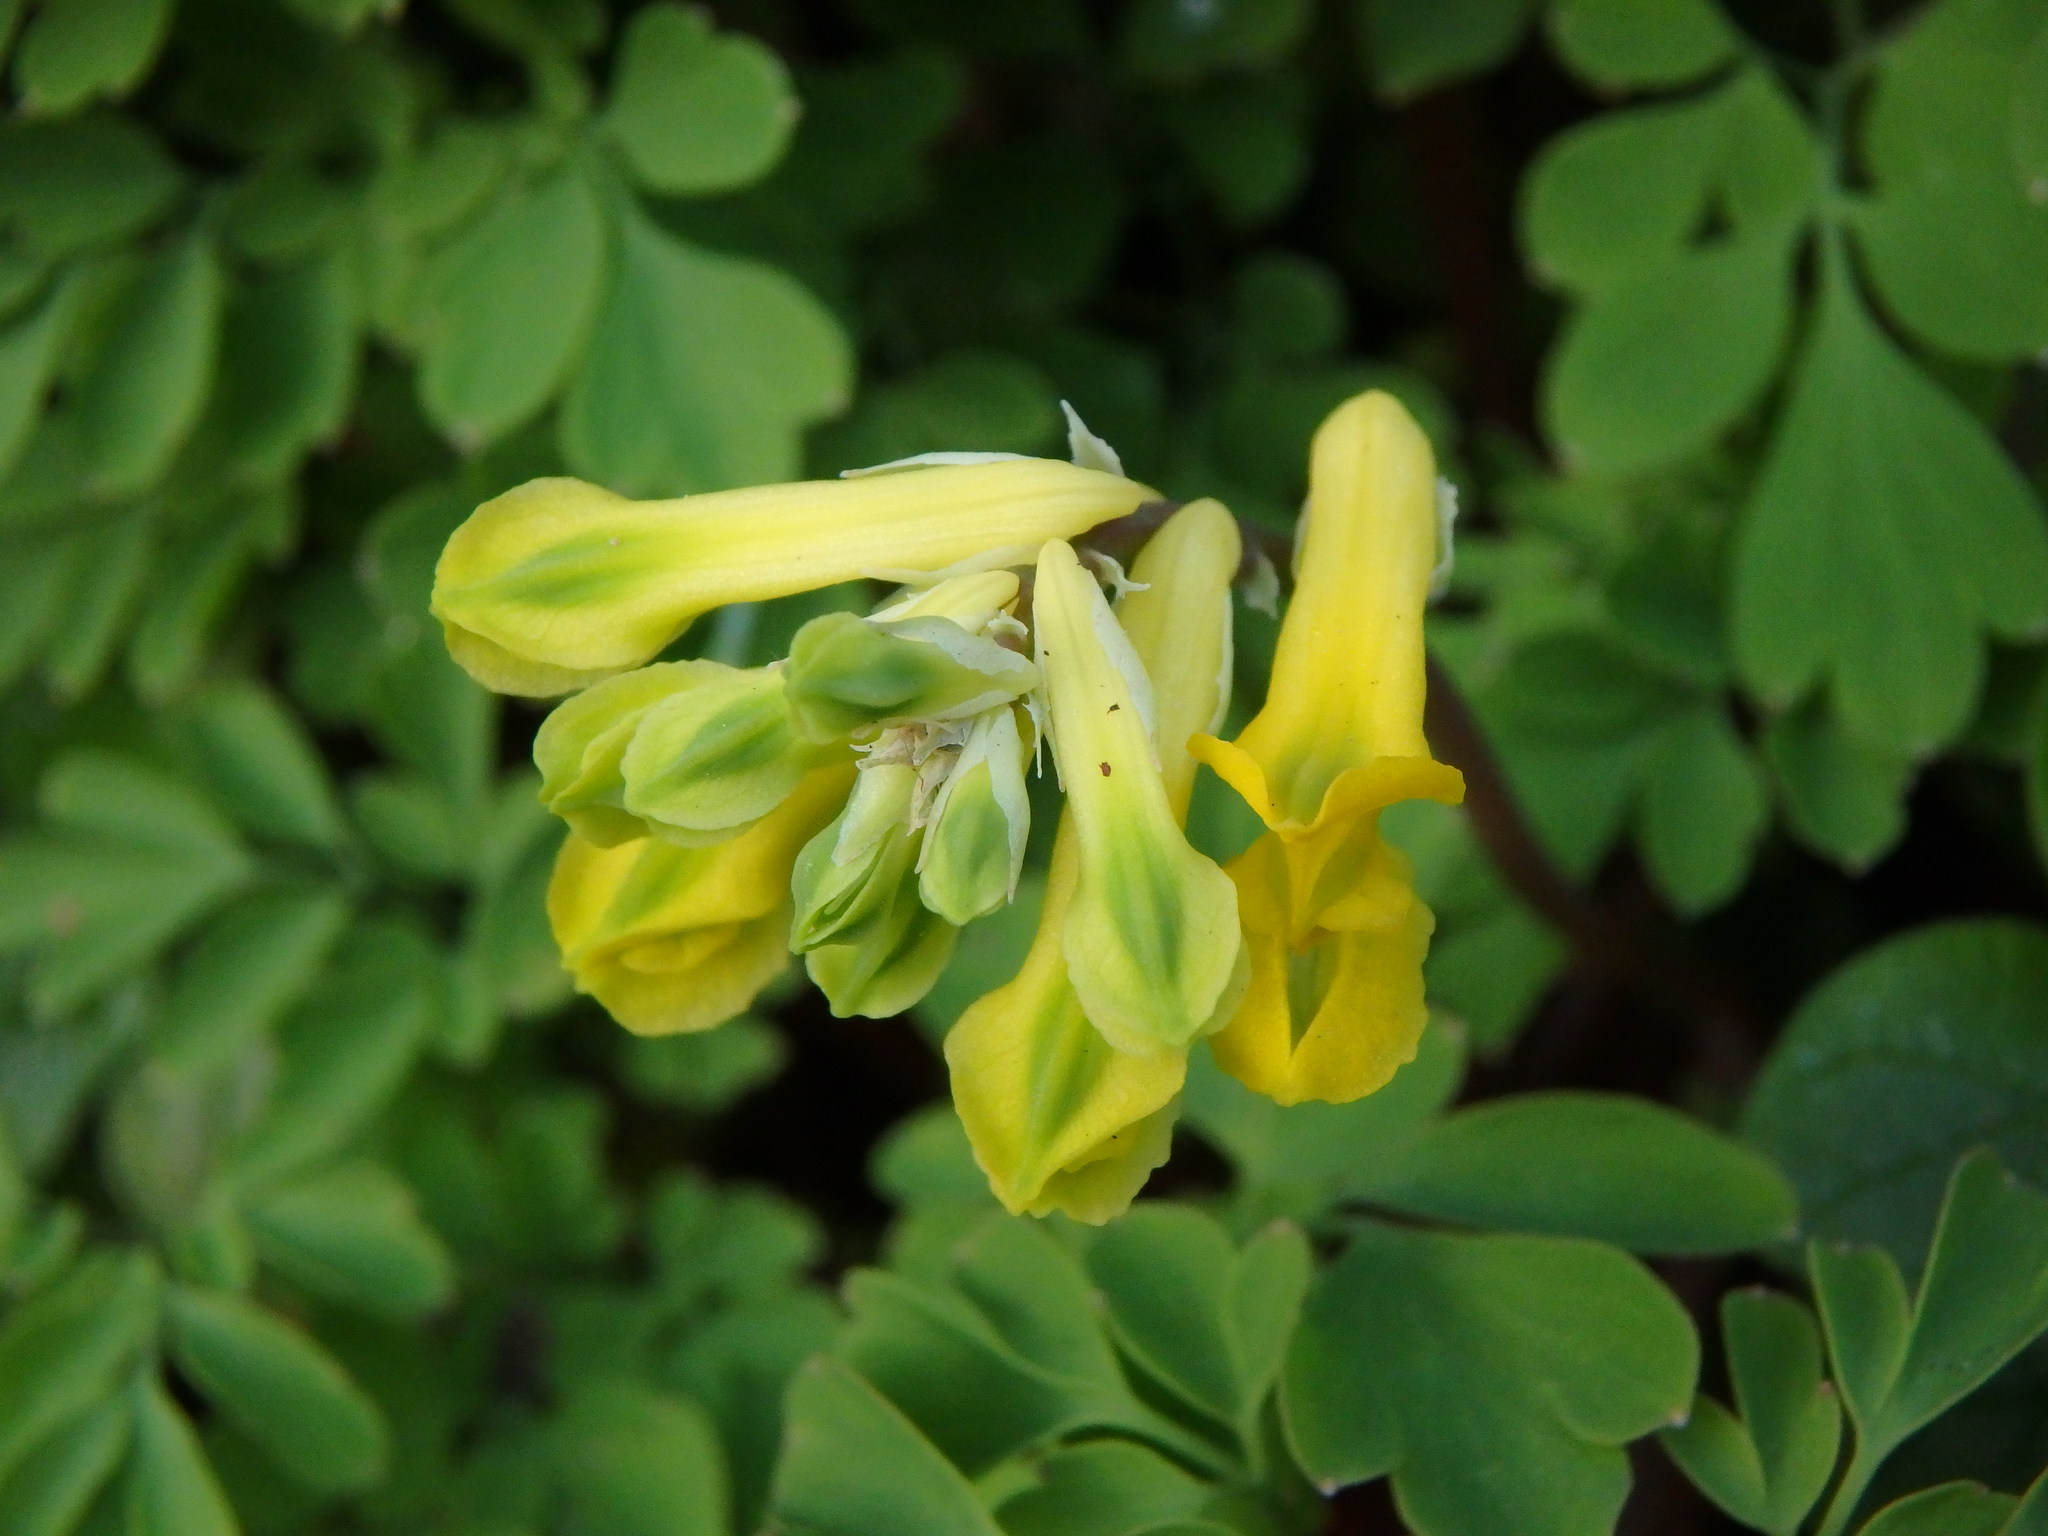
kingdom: Plantae
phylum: Tracheophyta
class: Magnoliopsida
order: Ranunculales
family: Papaveraceae
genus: Pseudofumaria
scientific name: Pseudofumaria lutea
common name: Yellow corydalis
